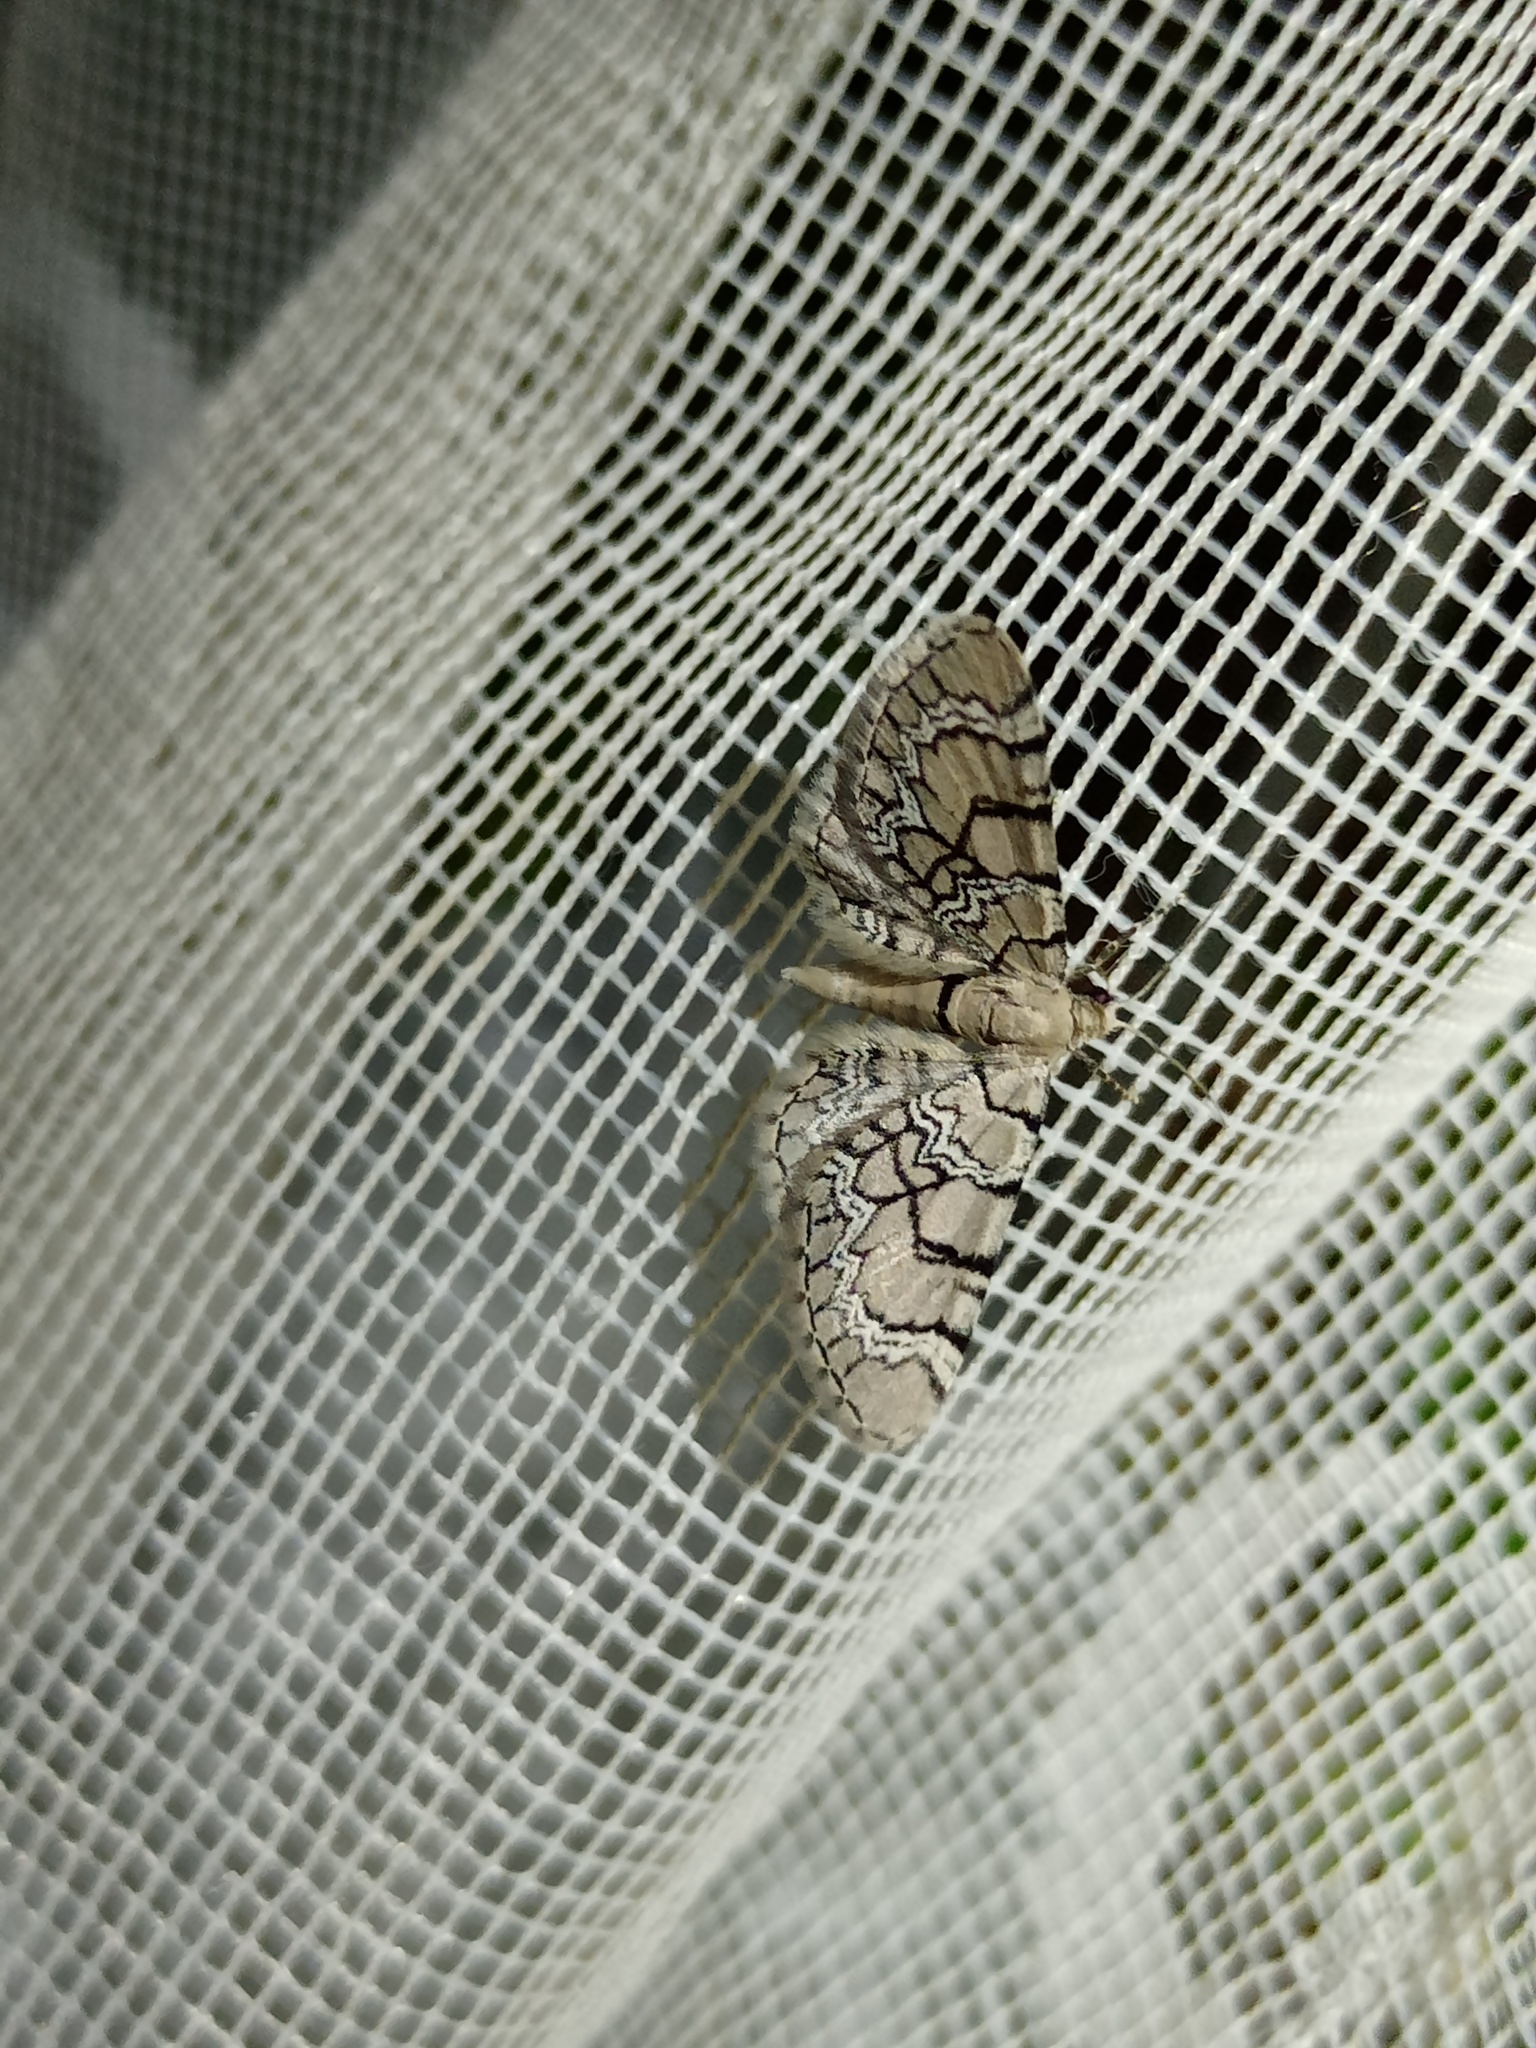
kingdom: Animalia
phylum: Arthropoda
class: Insecta
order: Lepidoptera
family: Geometridae
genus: Eupithecia
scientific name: Eupithecia venosata
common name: Netted pug
